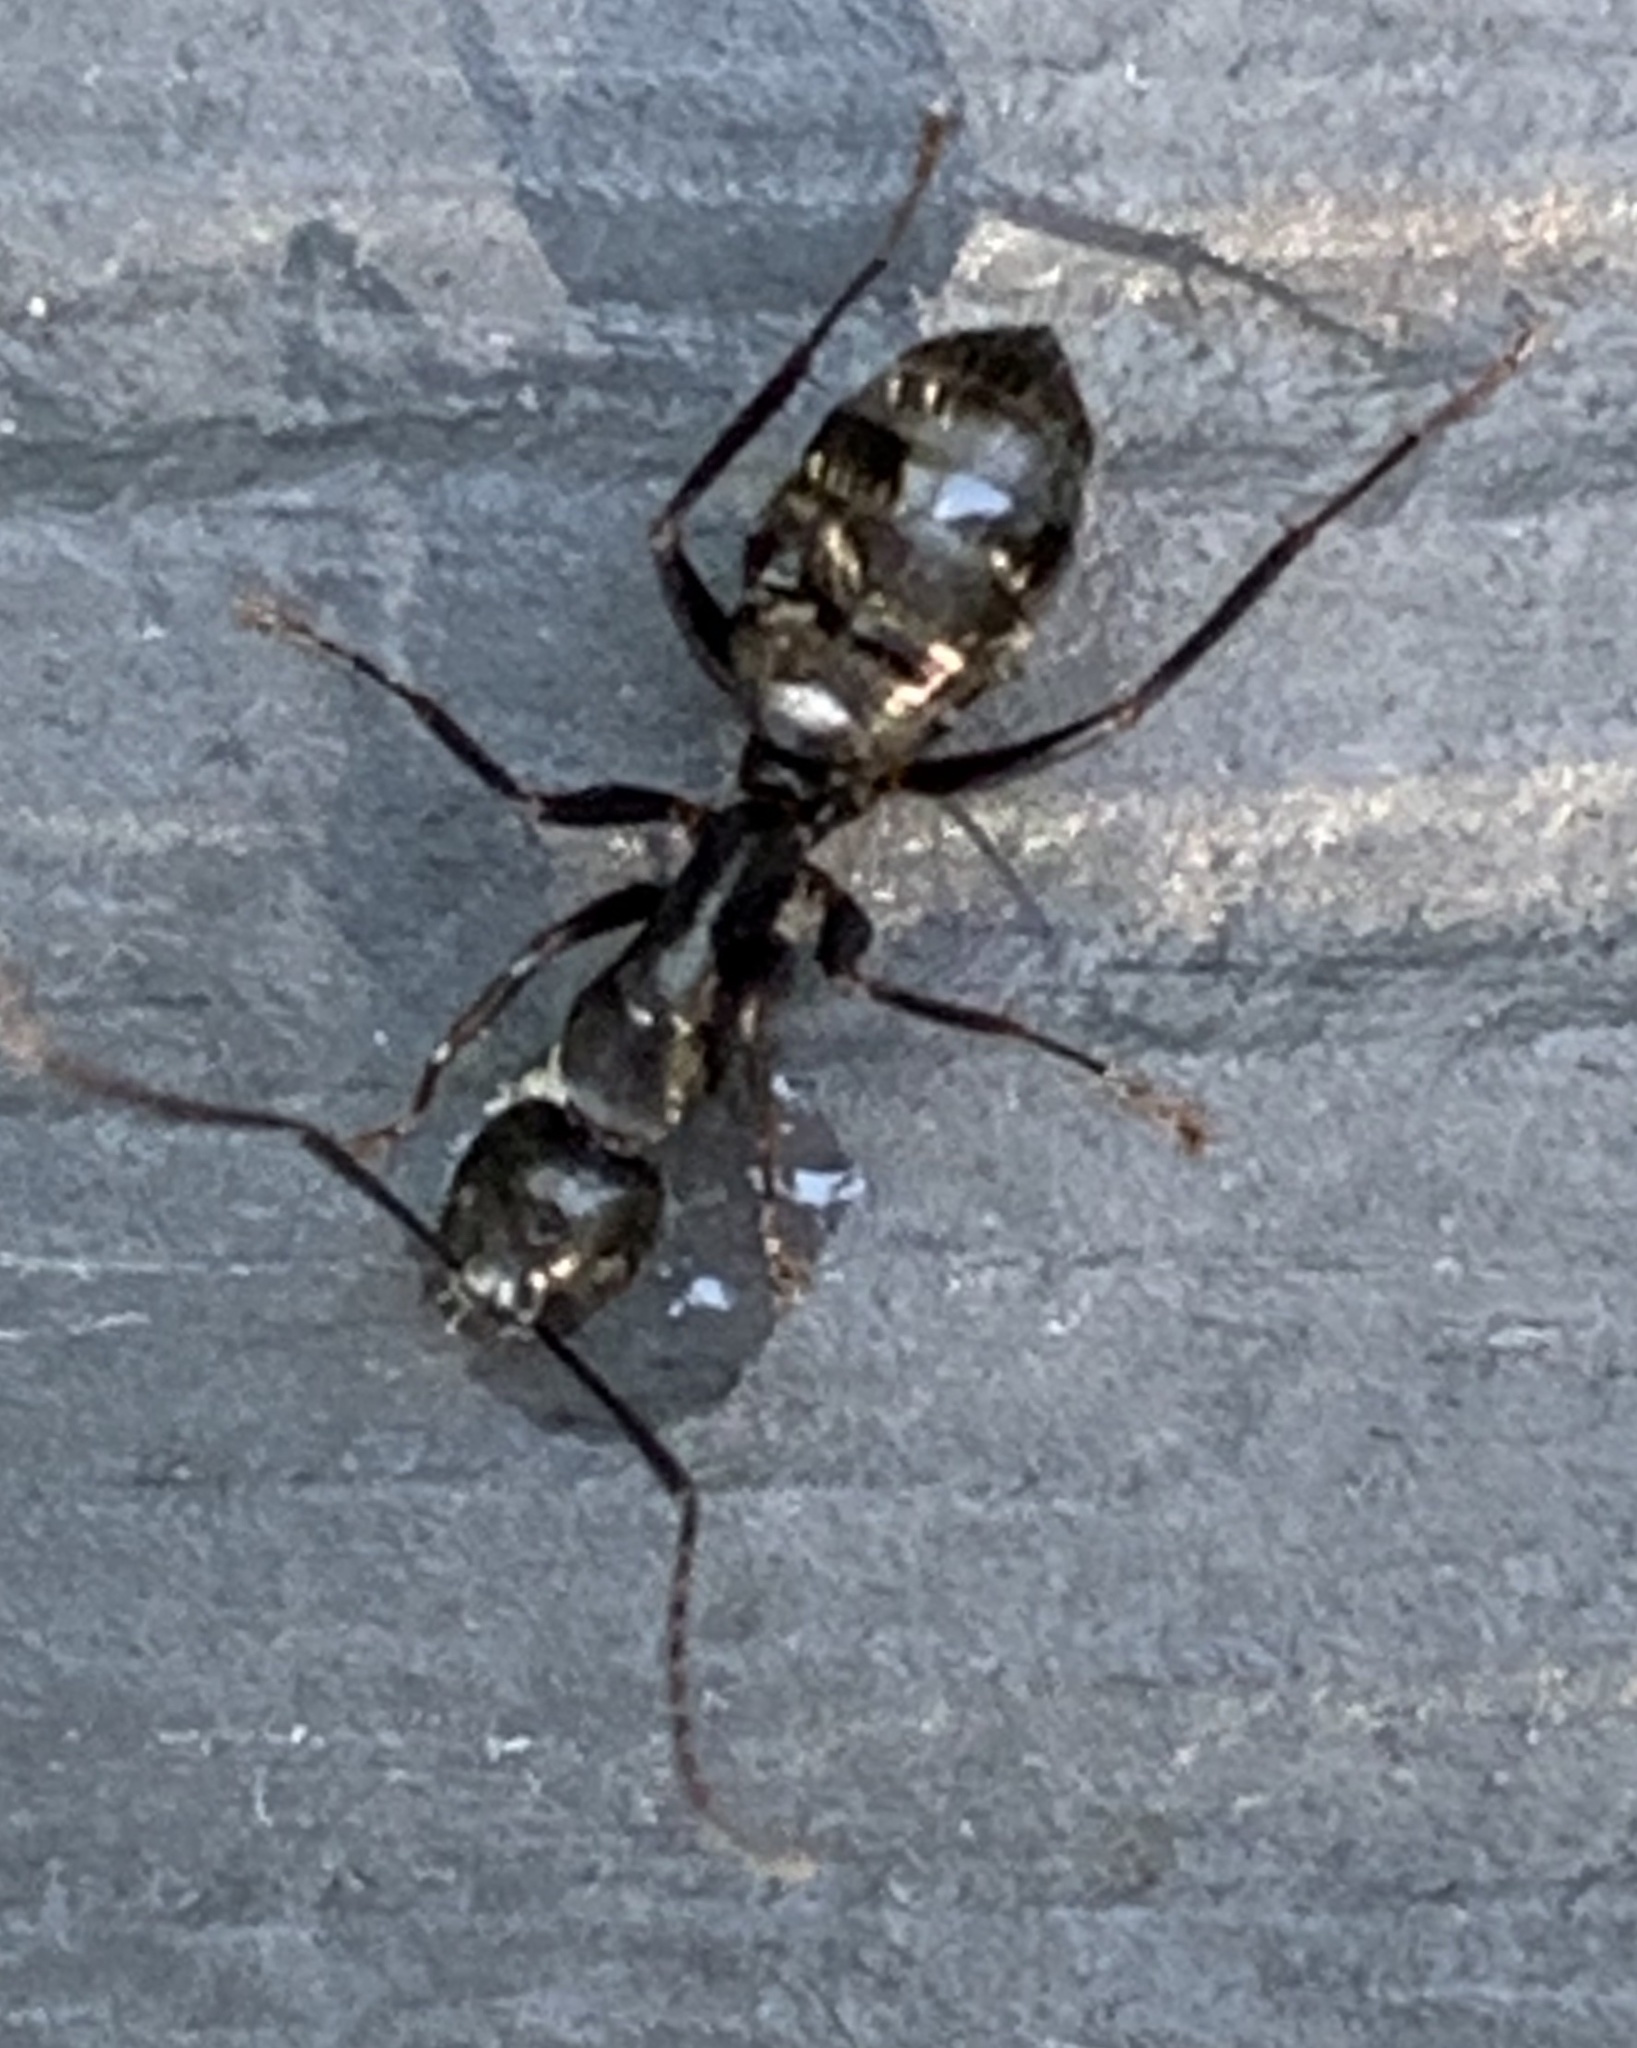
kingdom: Animalia
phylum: Arthropoda
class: Insecta
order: Hymenoptera
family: Formicidae
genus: Camponotus
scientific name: Camponotus pennsylvanicus
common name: Black carpenter ant
